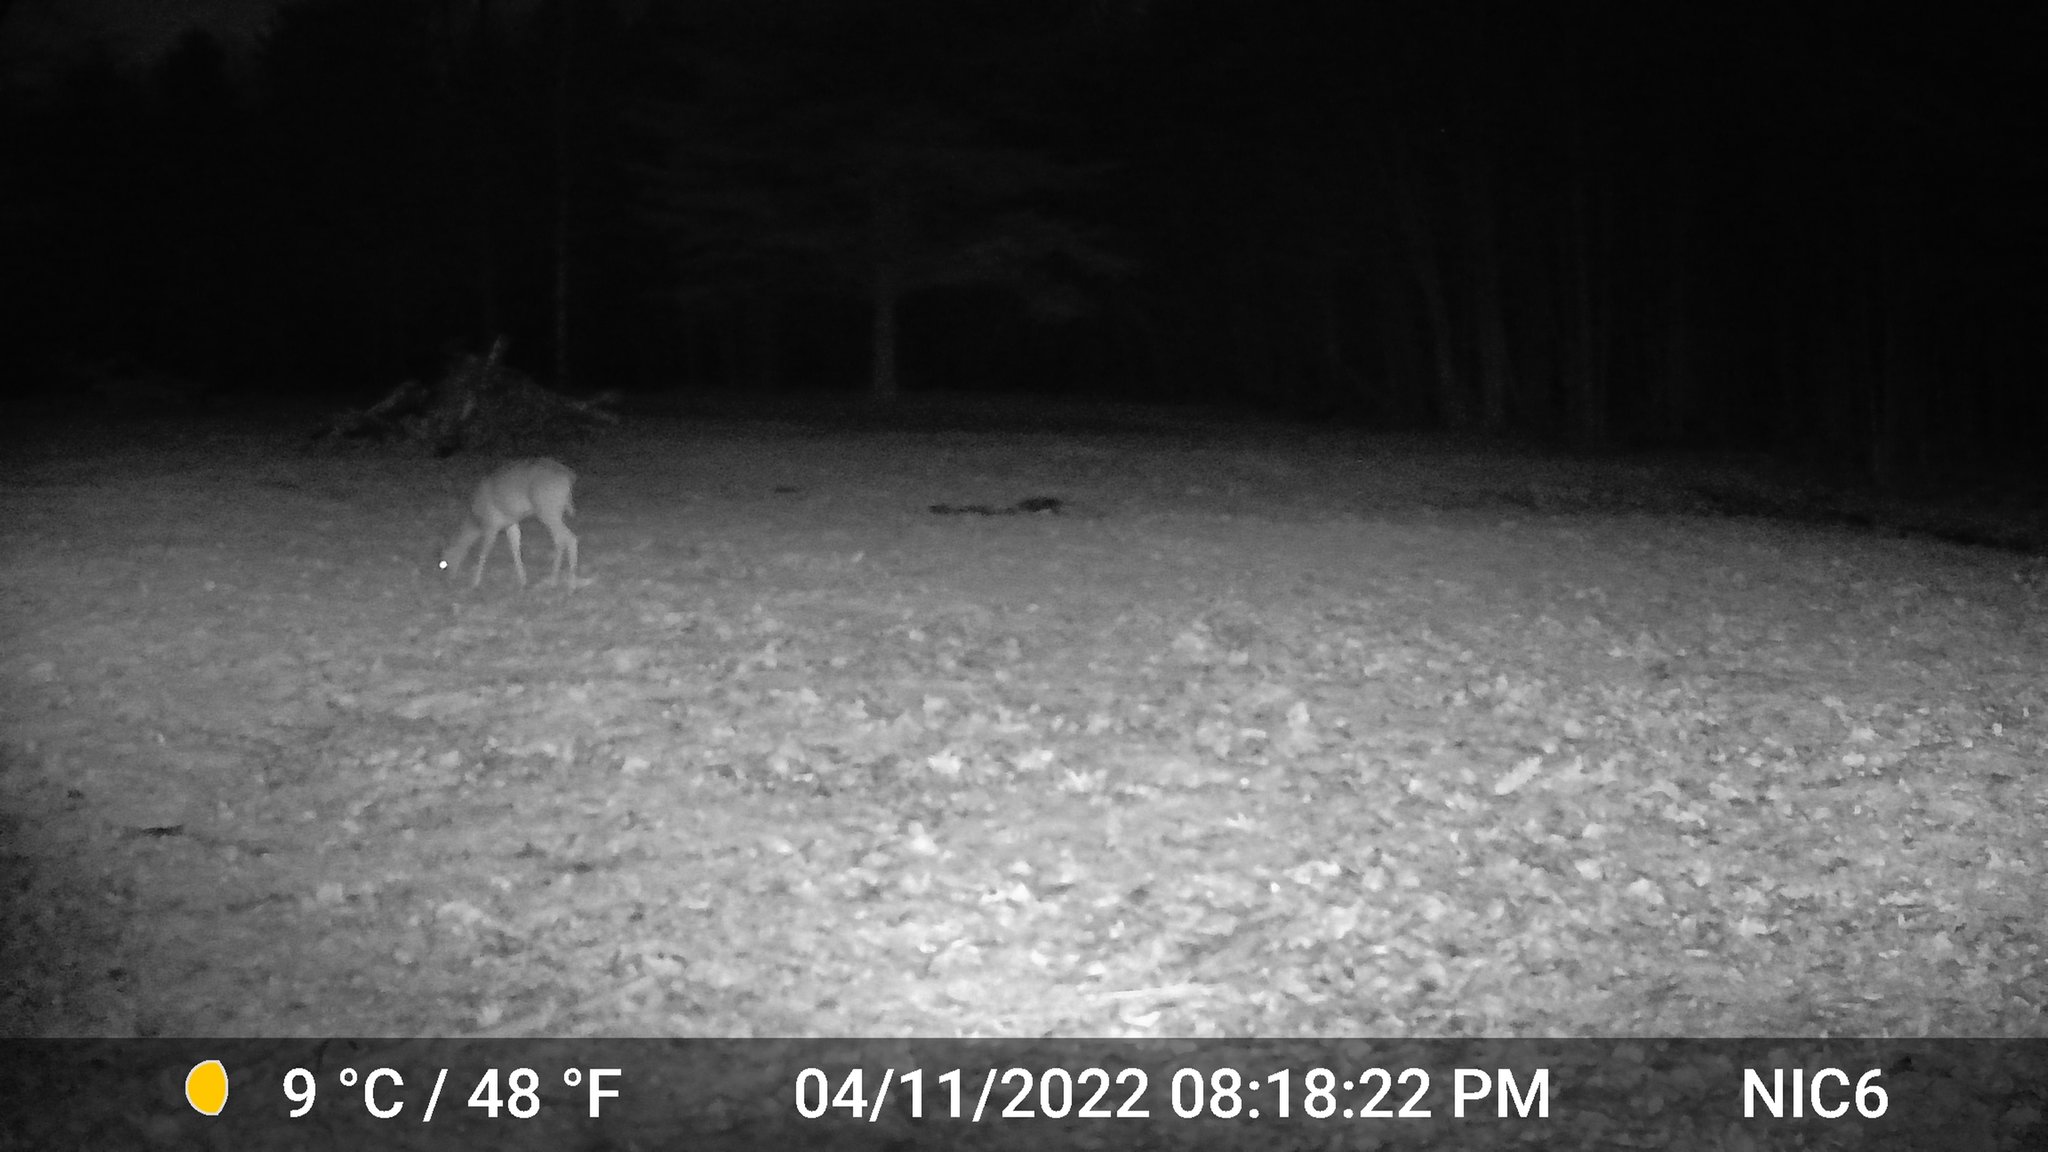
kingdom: Animalia
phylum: Chordata
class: Mammalia
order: Artiodactyla
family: Cervidae
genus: Odocoileus
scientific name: Odocoileus virginianus
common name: White-tailed deer
